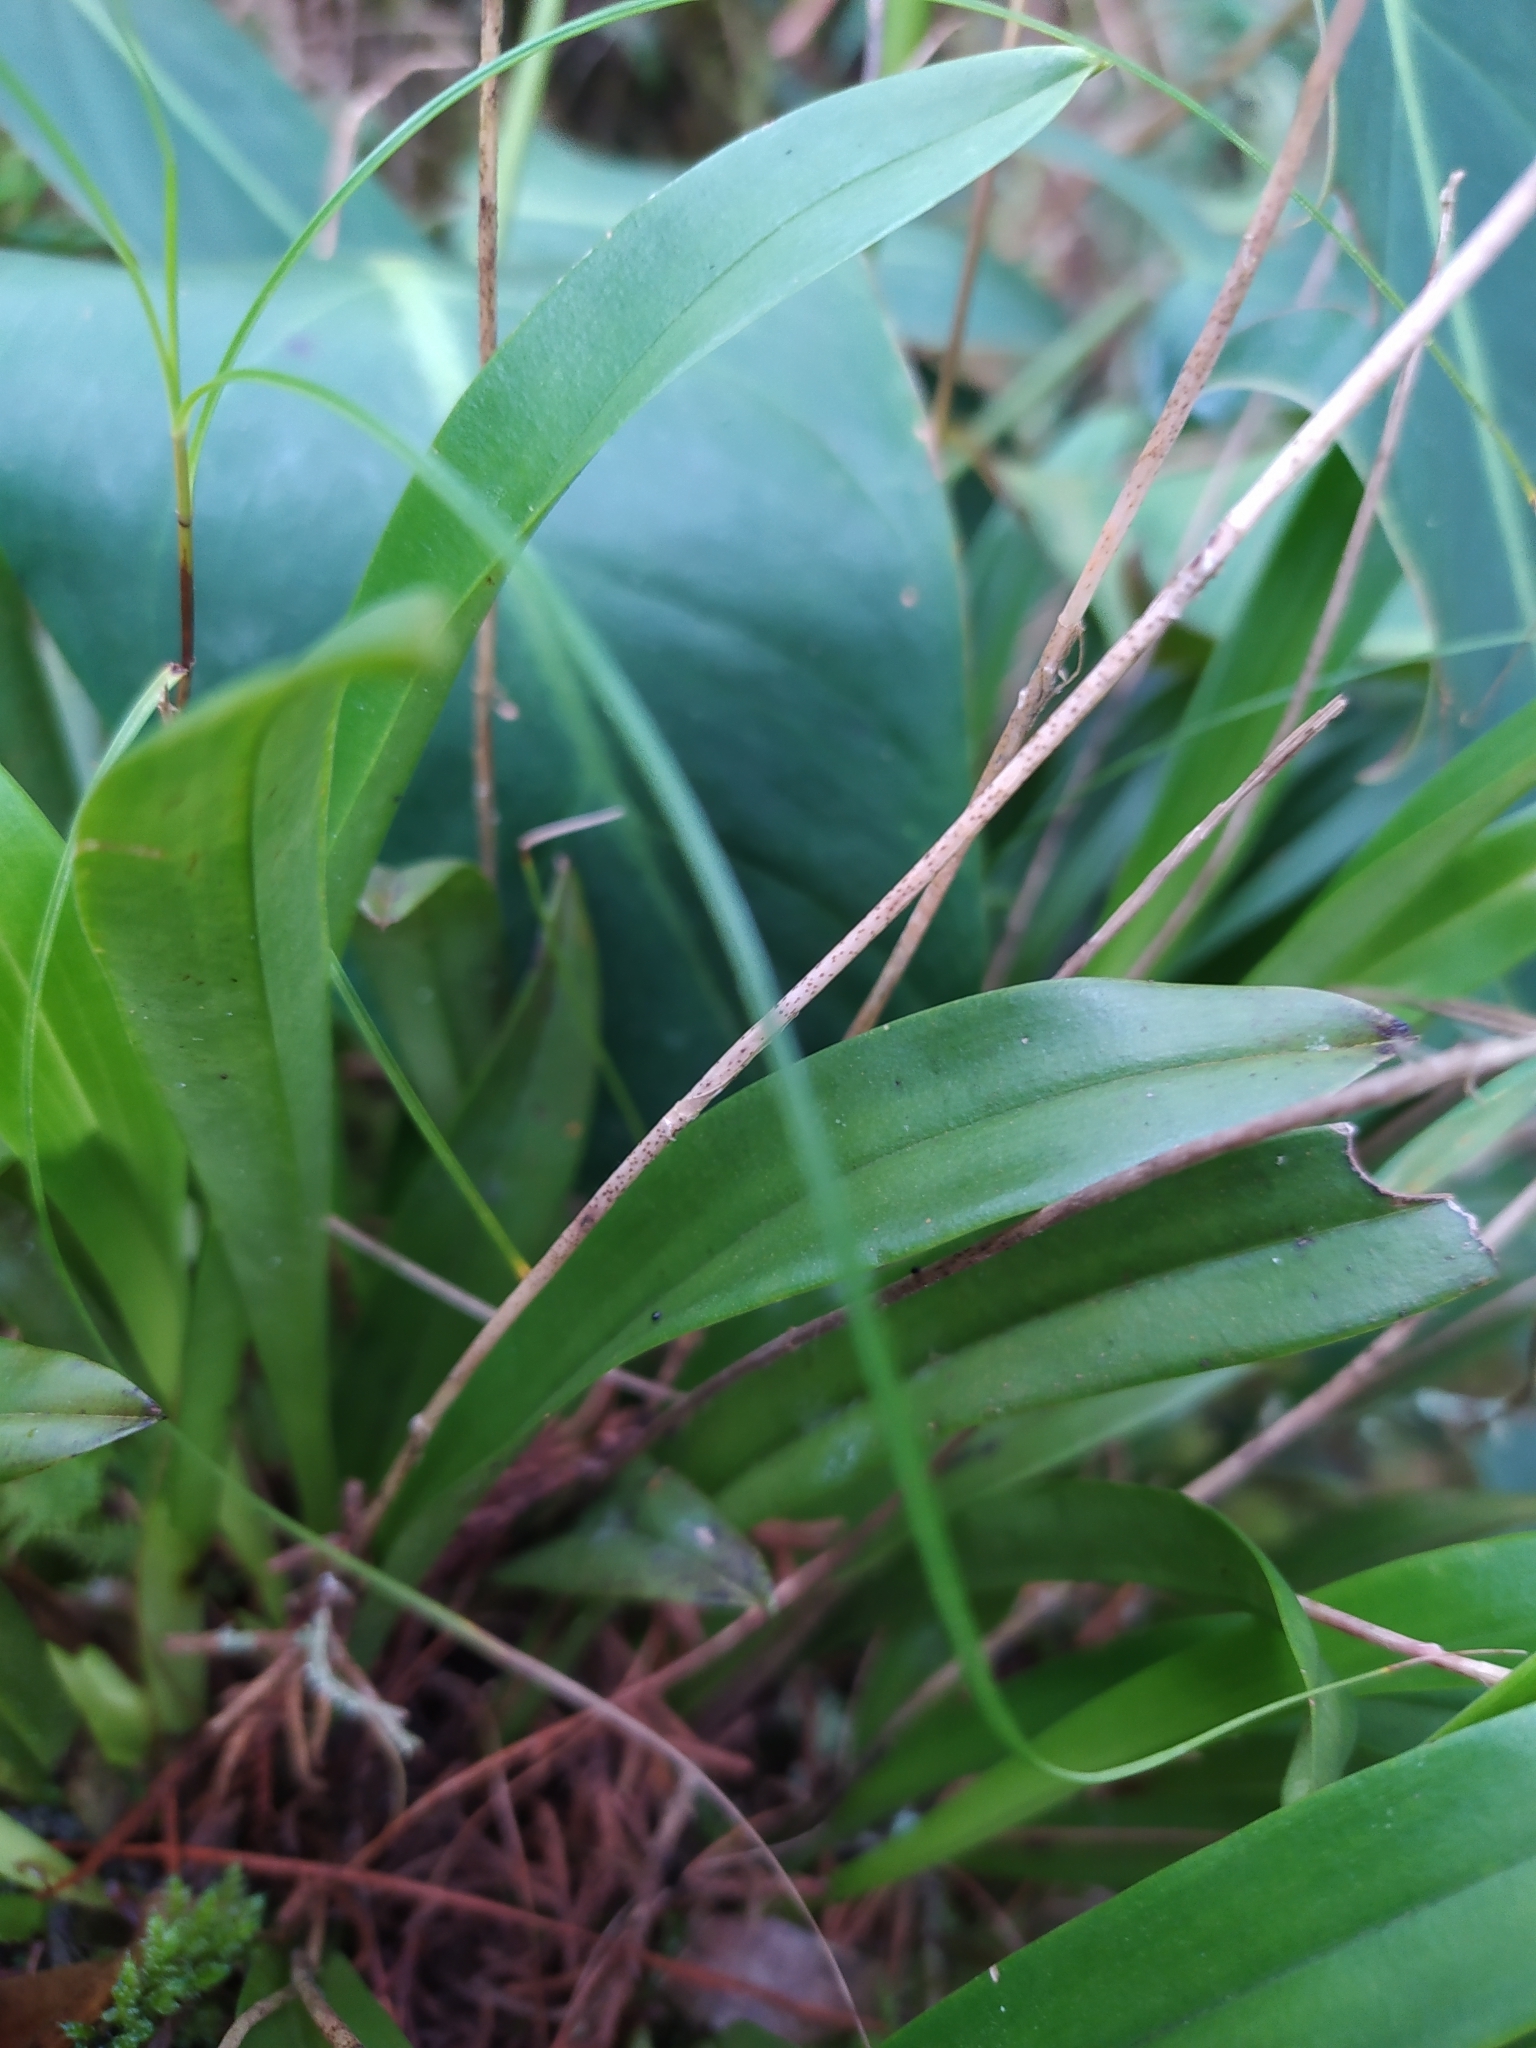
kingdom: Plantae
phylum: Tracheophyta
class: Liliopsida
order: Asparagales
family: Orchidaceae
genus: Dracula
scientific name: Dracula trichroma
